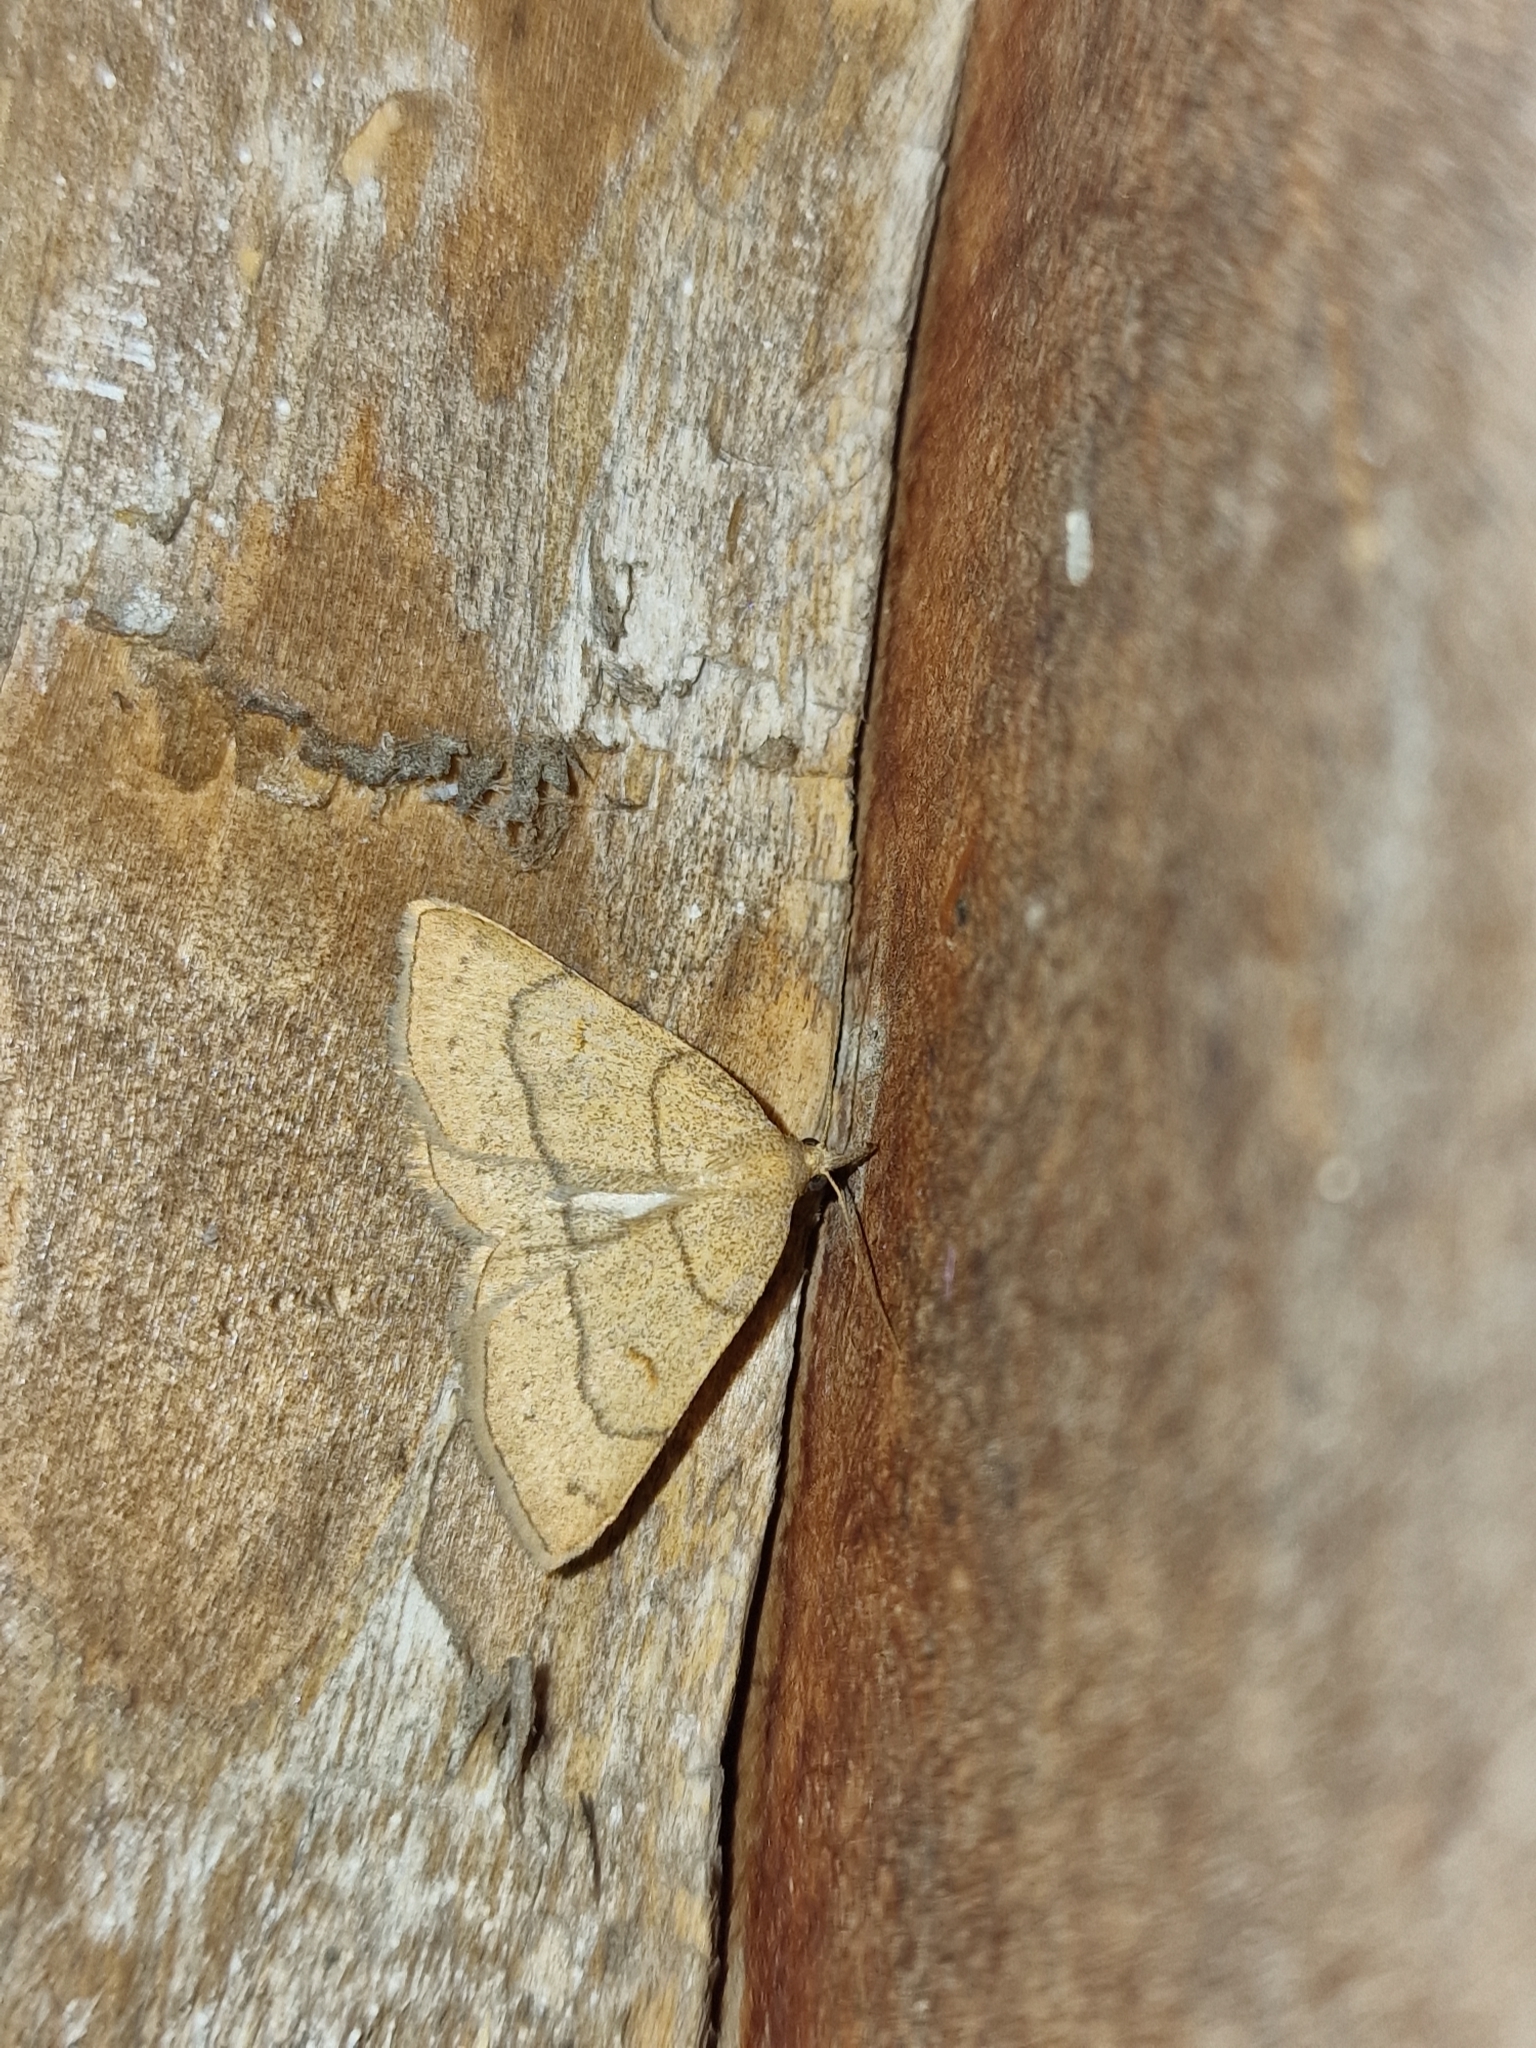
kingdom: Animalia
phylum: Arthropoda
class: Insecta
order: Lepidoptera
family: Erebidae
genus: Paracolax
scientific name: Paracolax tristalis
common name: Clay fan-foot
